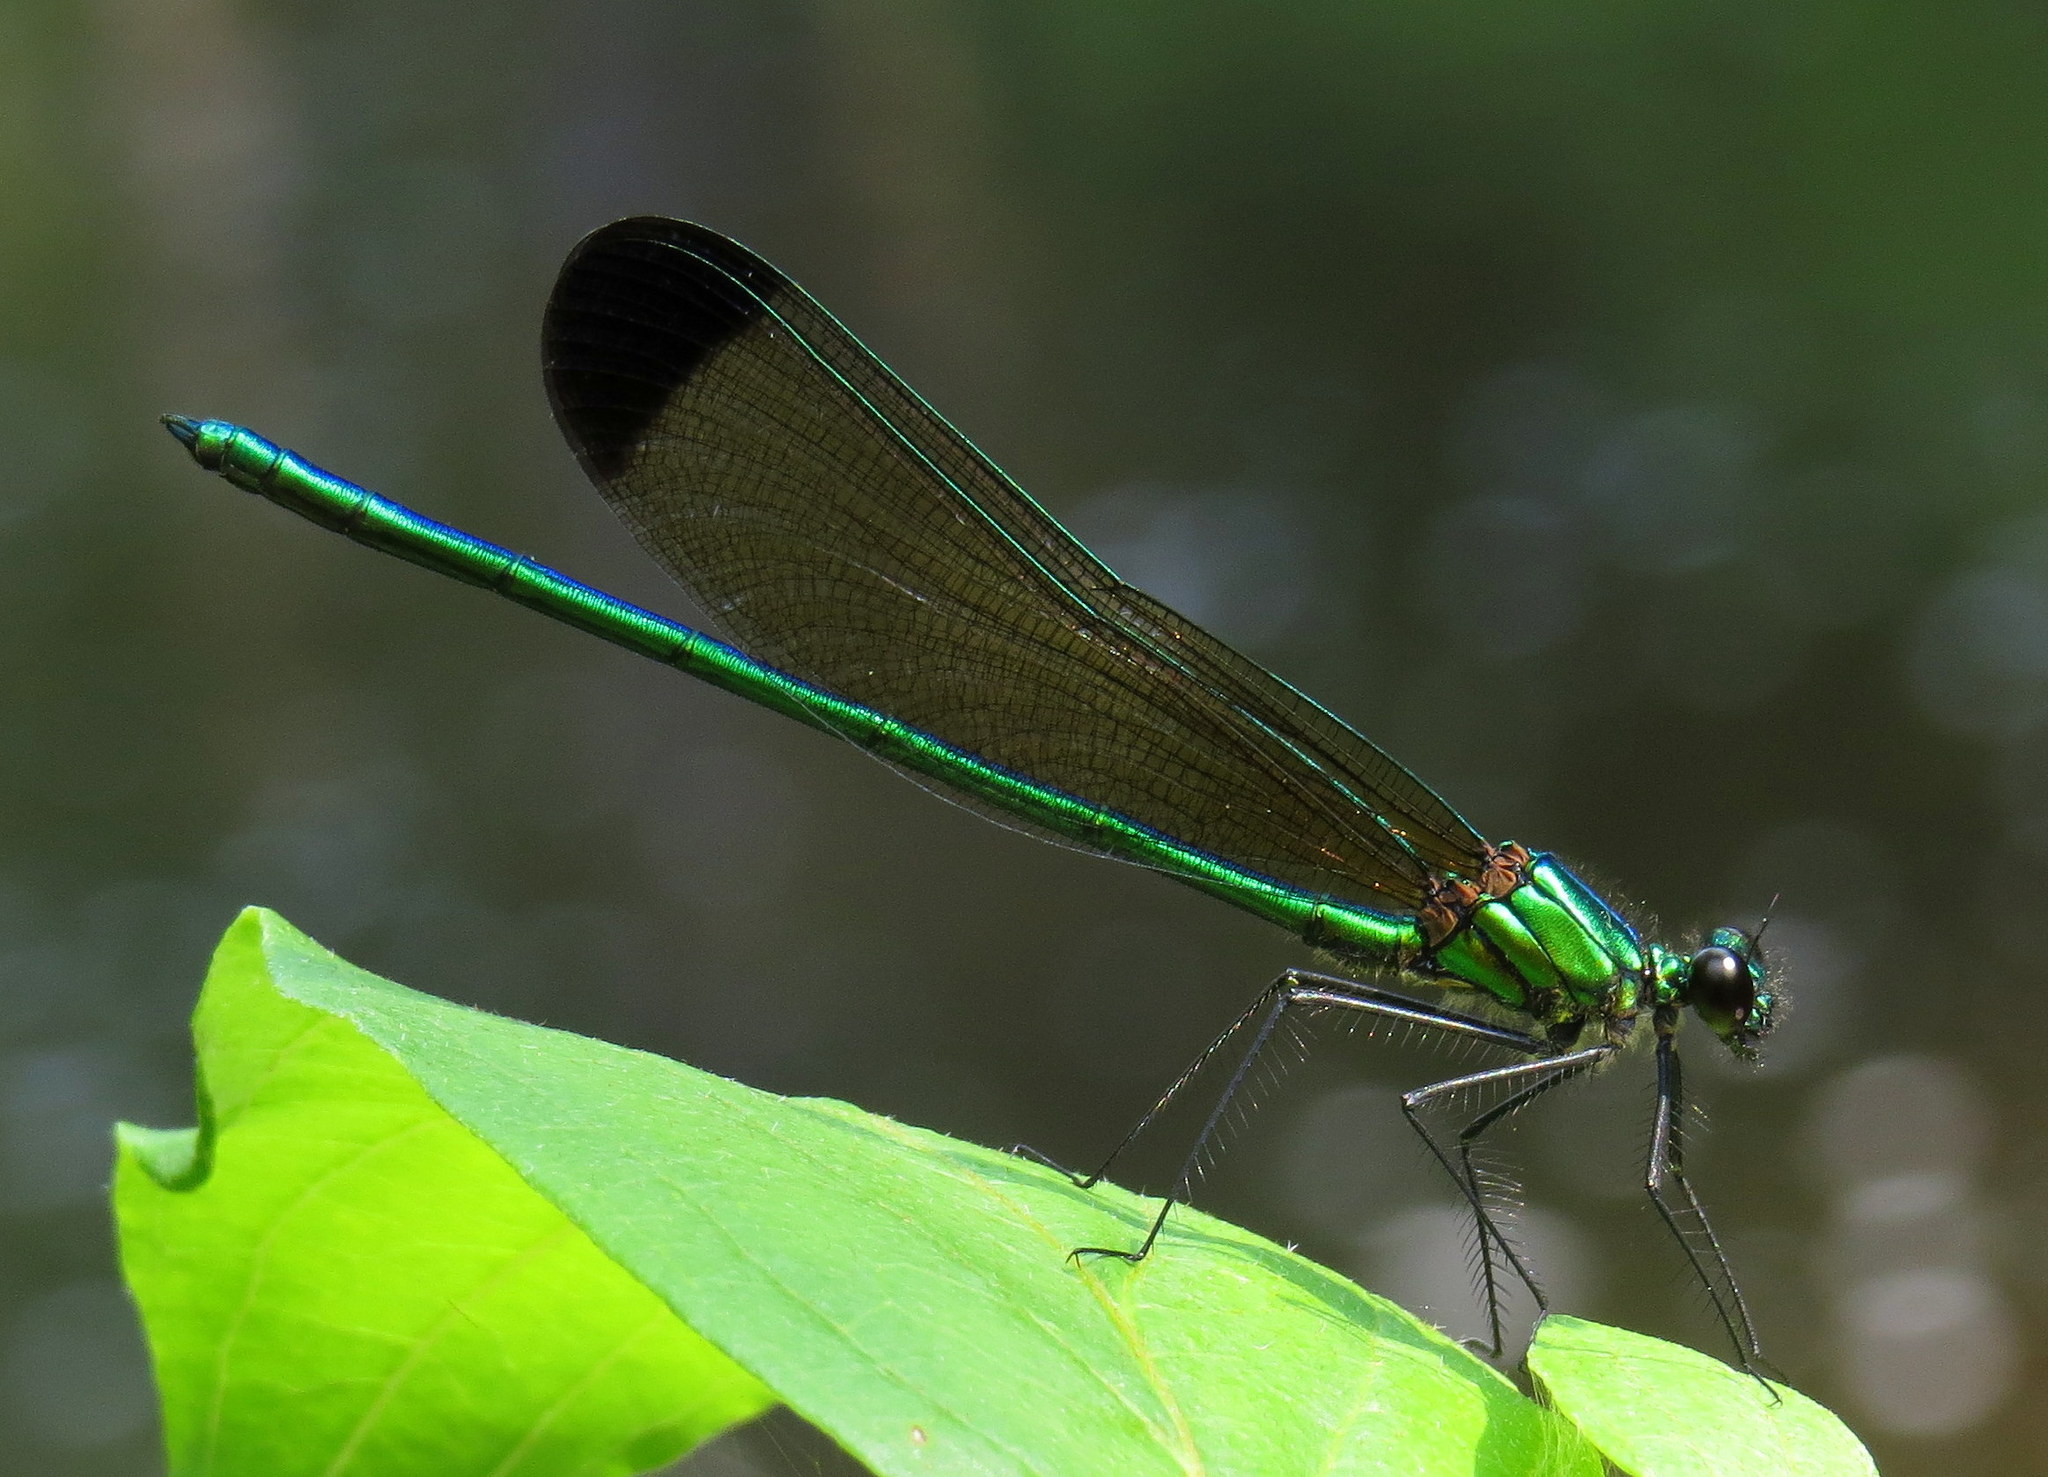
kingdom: Animalia
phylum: Arthropoda
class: Insecta
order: Odonata
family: Calopterygidae
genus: Calopteryx
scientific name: Calopteryx dimidiata
